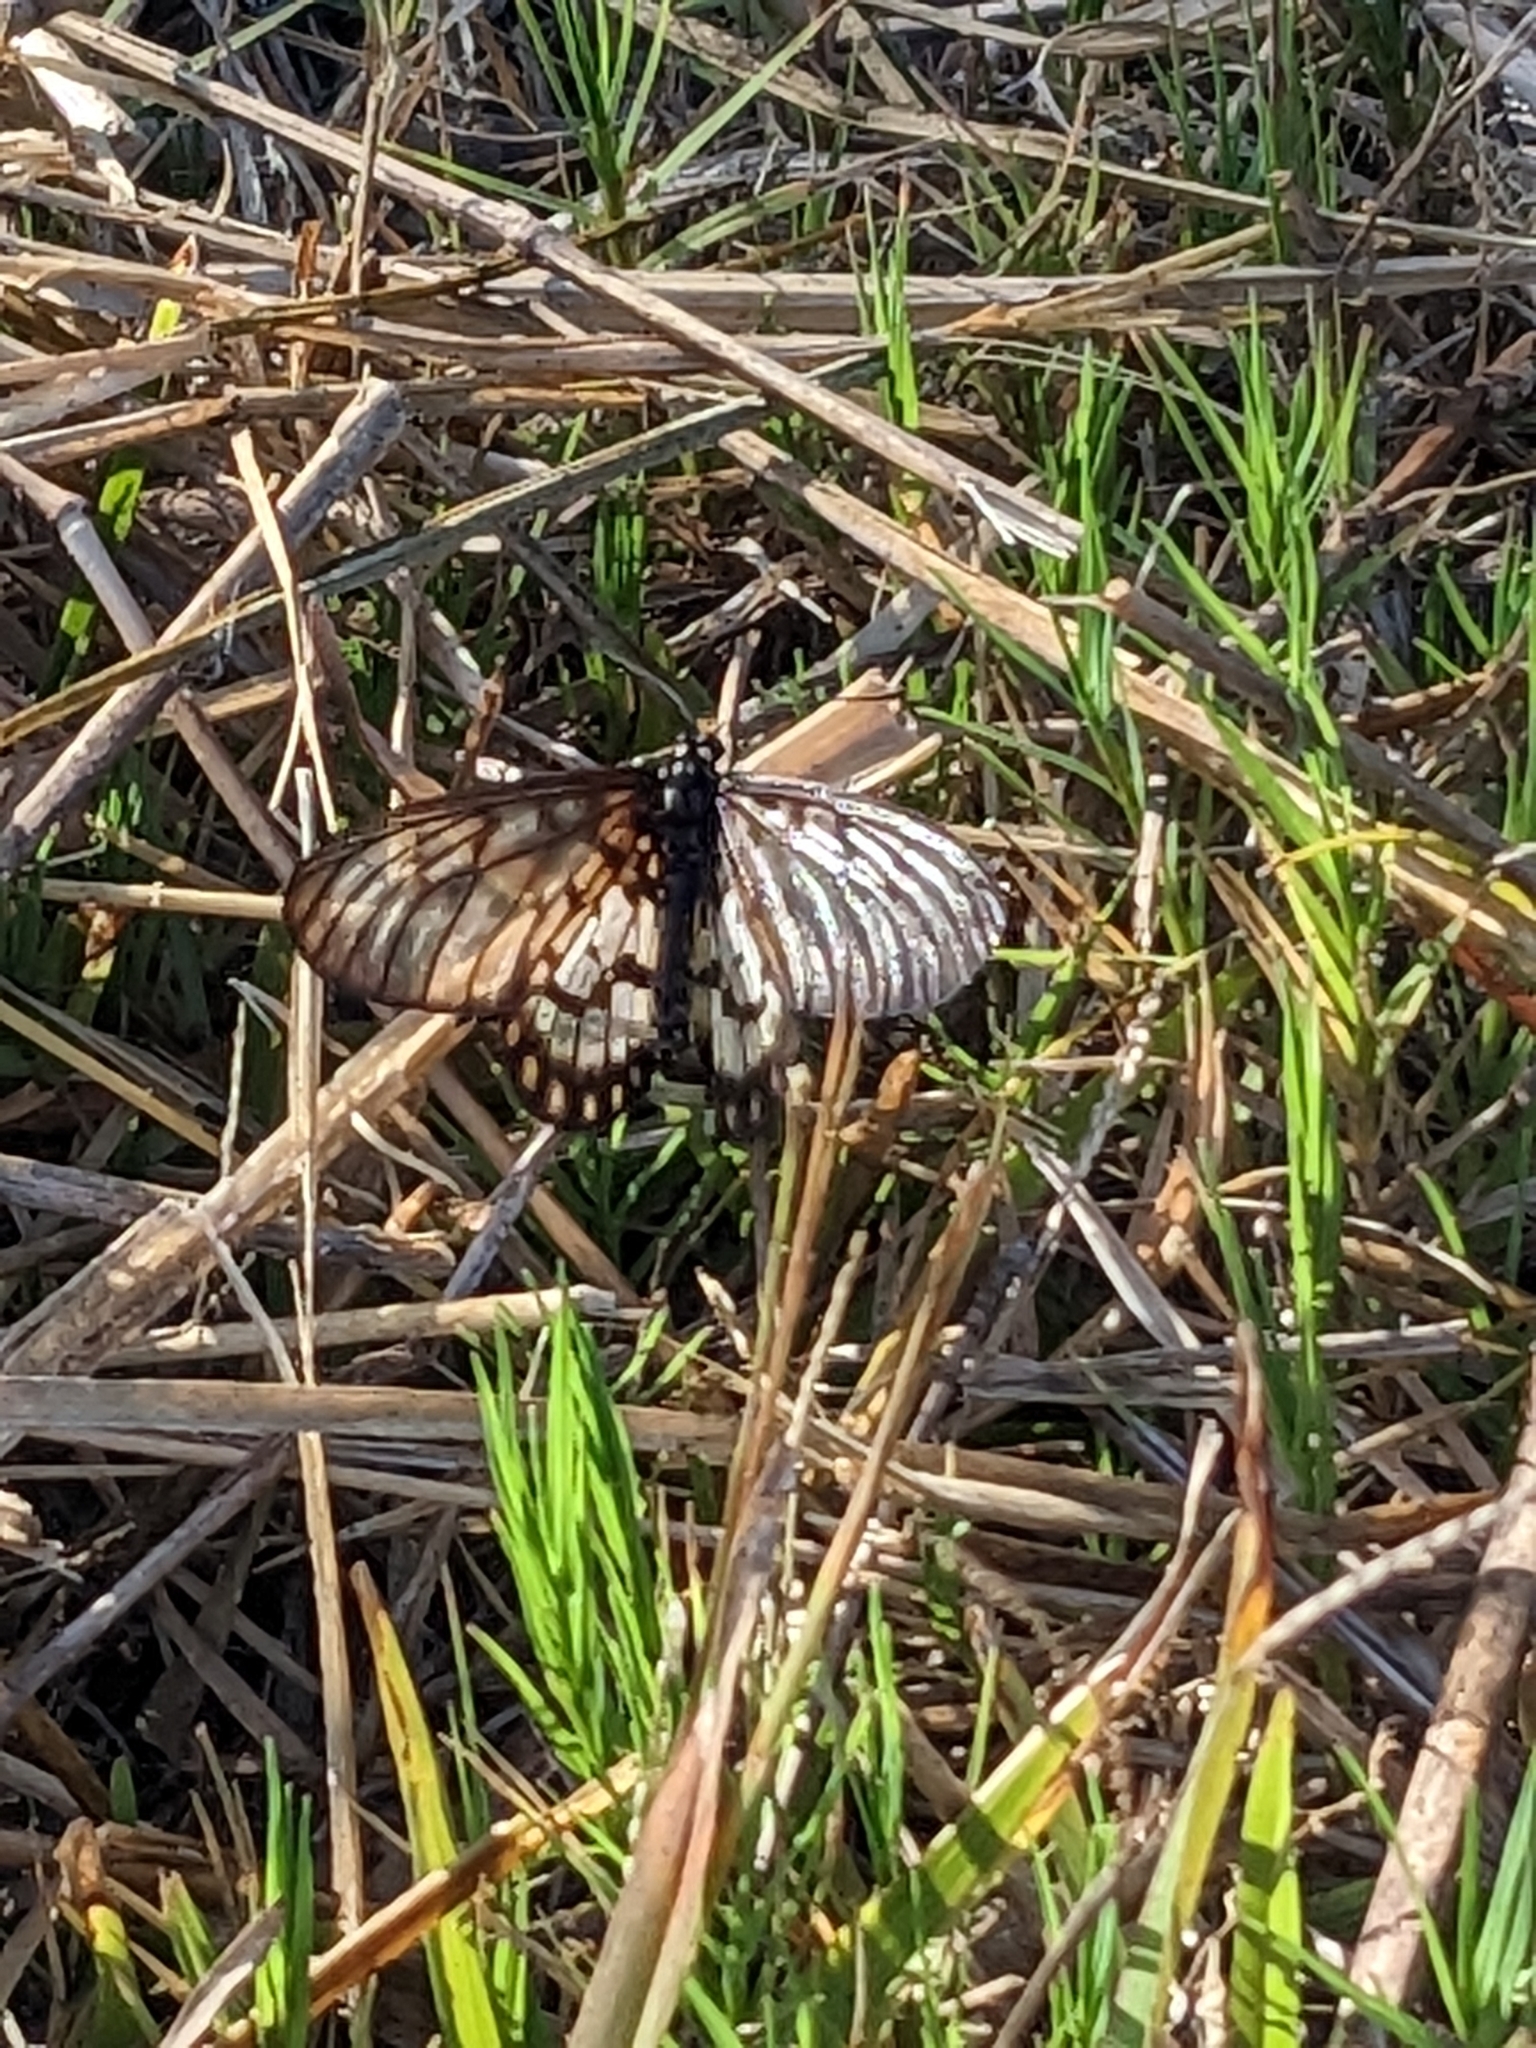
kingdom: Animalia
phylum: Arthropoda
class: Insecta
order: Lepidoptera
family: Nymphalidae
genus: Acraea
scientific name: Acraea andromacha
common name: Glasswing
